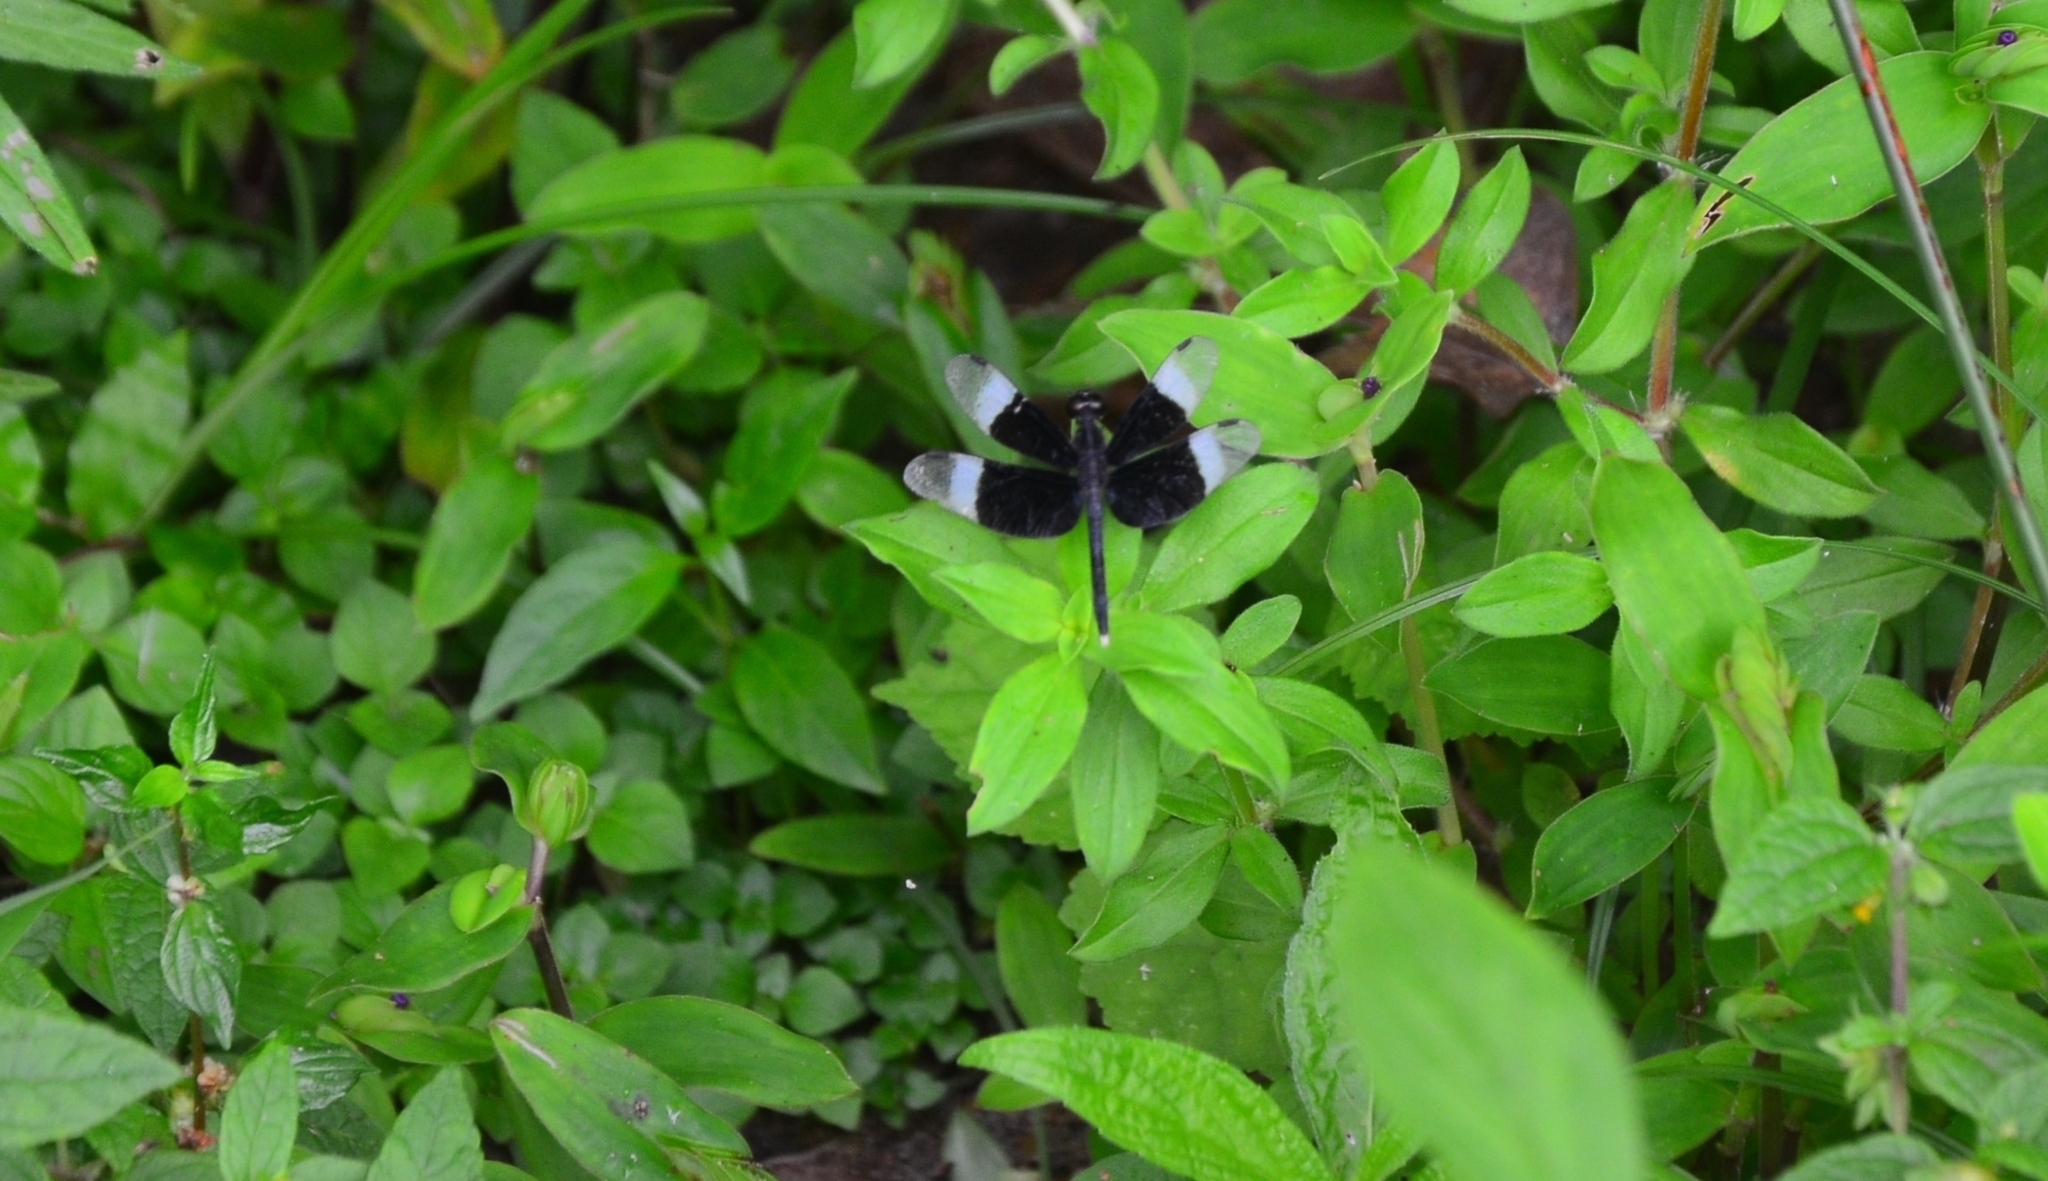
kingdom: Animalia
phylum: Arthropoda
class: Insecta
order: Odonata
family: Libellulidae
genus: Neurothemis
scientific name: Neurothemis tullia
